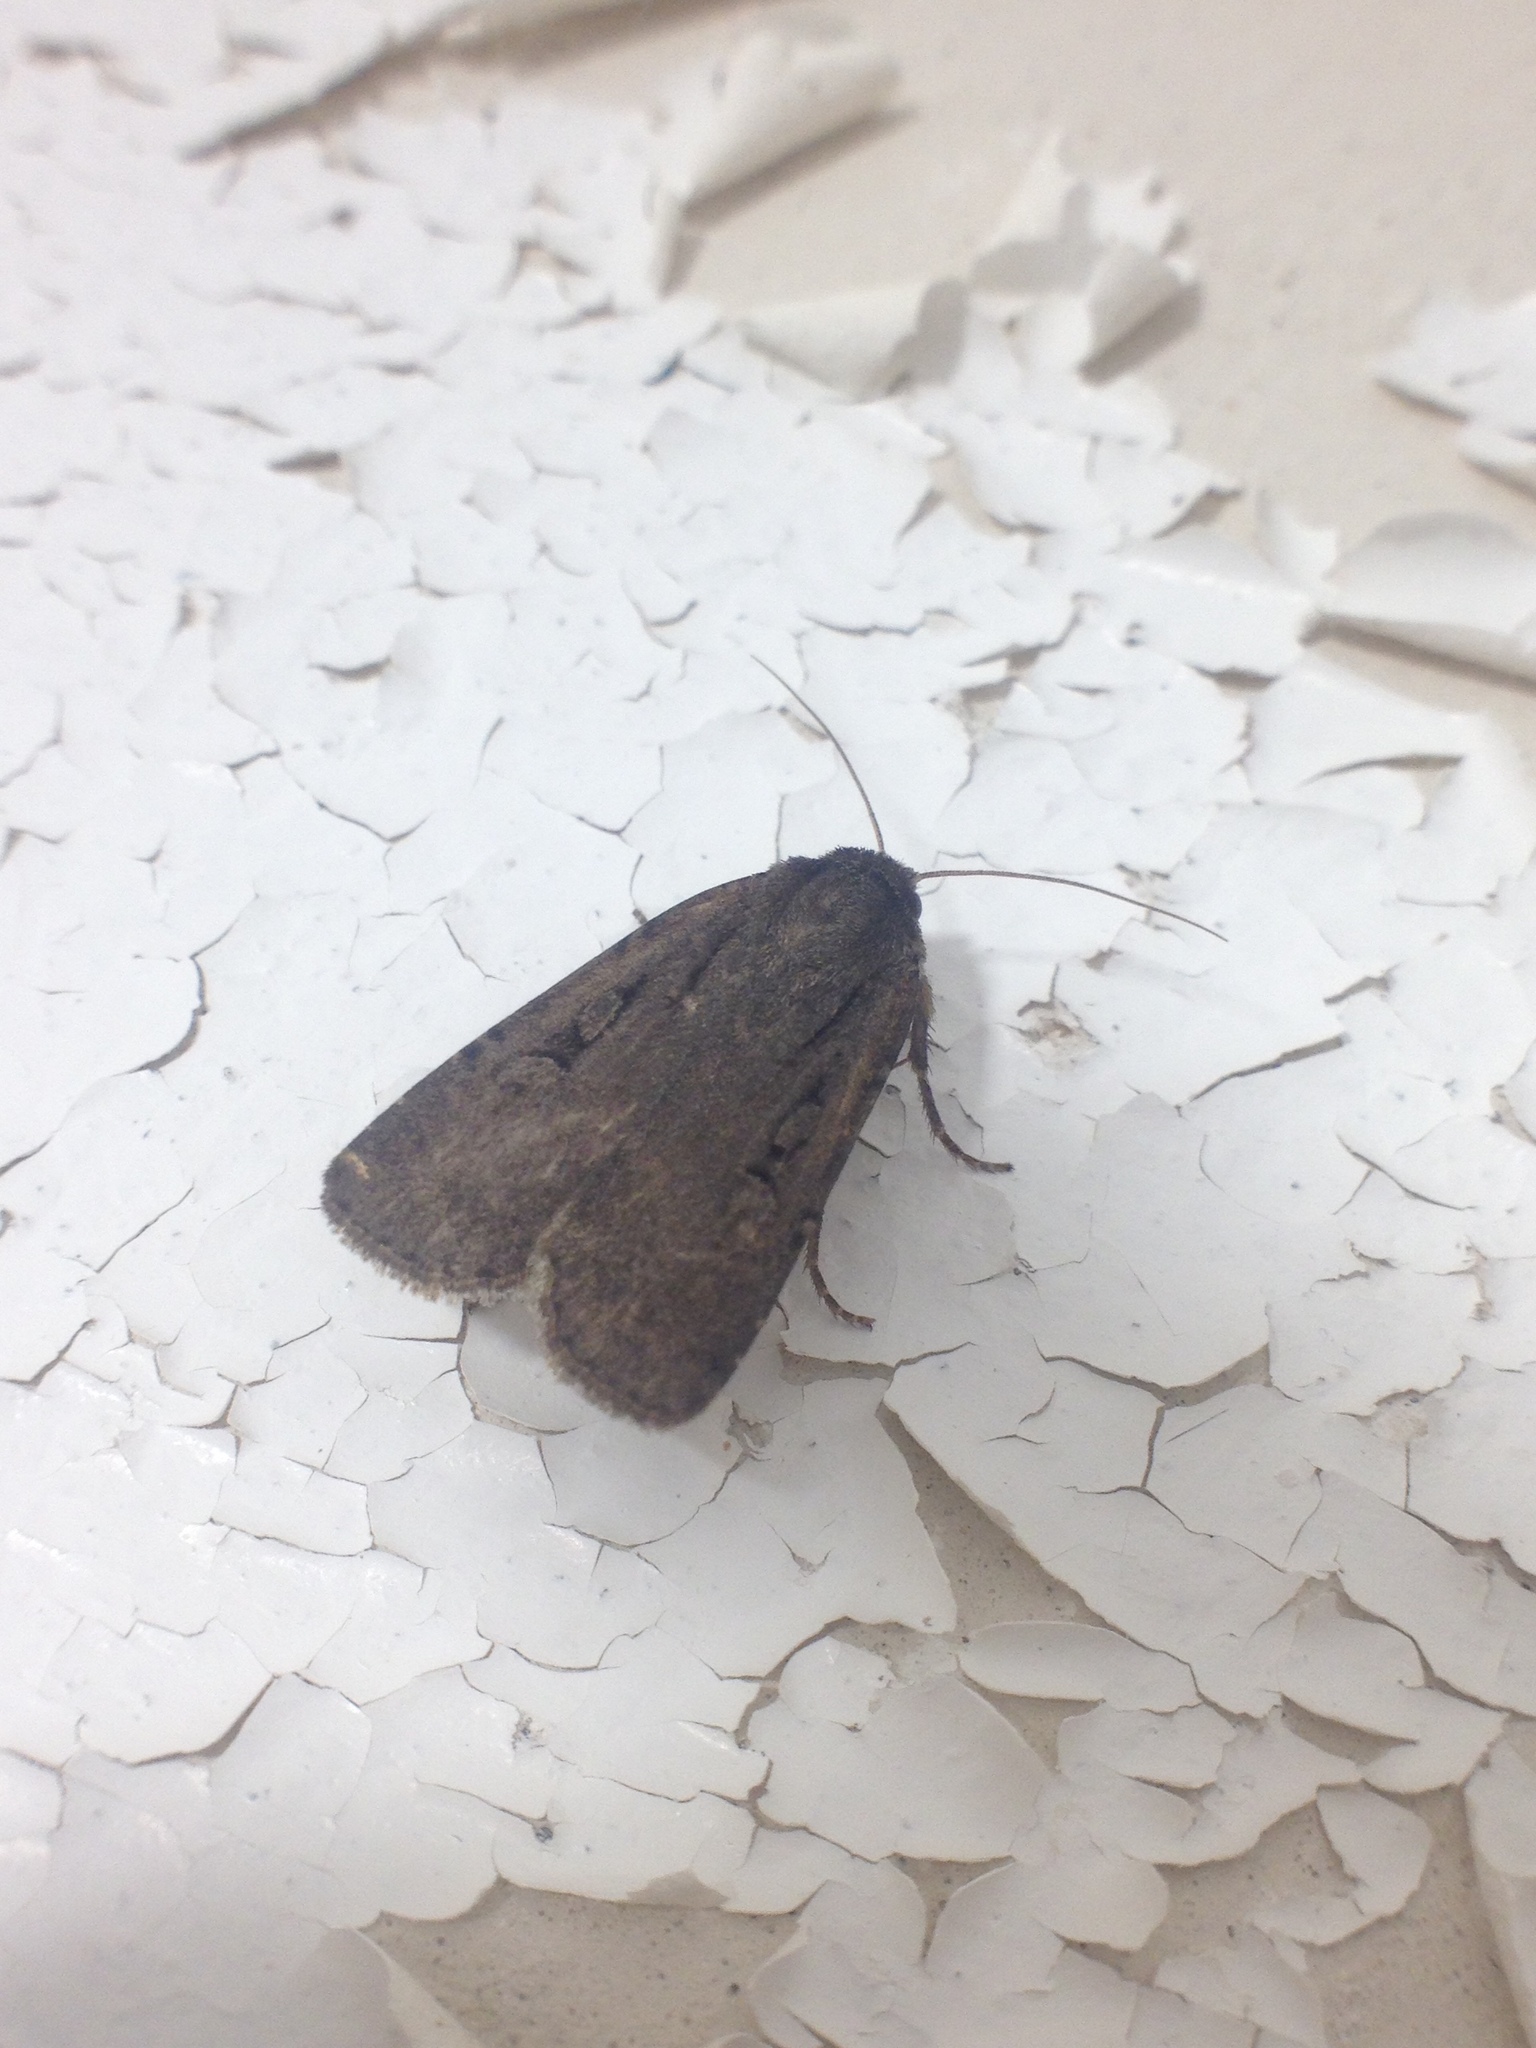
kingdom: Animalia
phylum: Arthropoda
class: Insecta
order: Lepidoptera
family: Noctuidae
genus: Graphiphora
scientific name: Graphiphora augur
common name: Double dart
